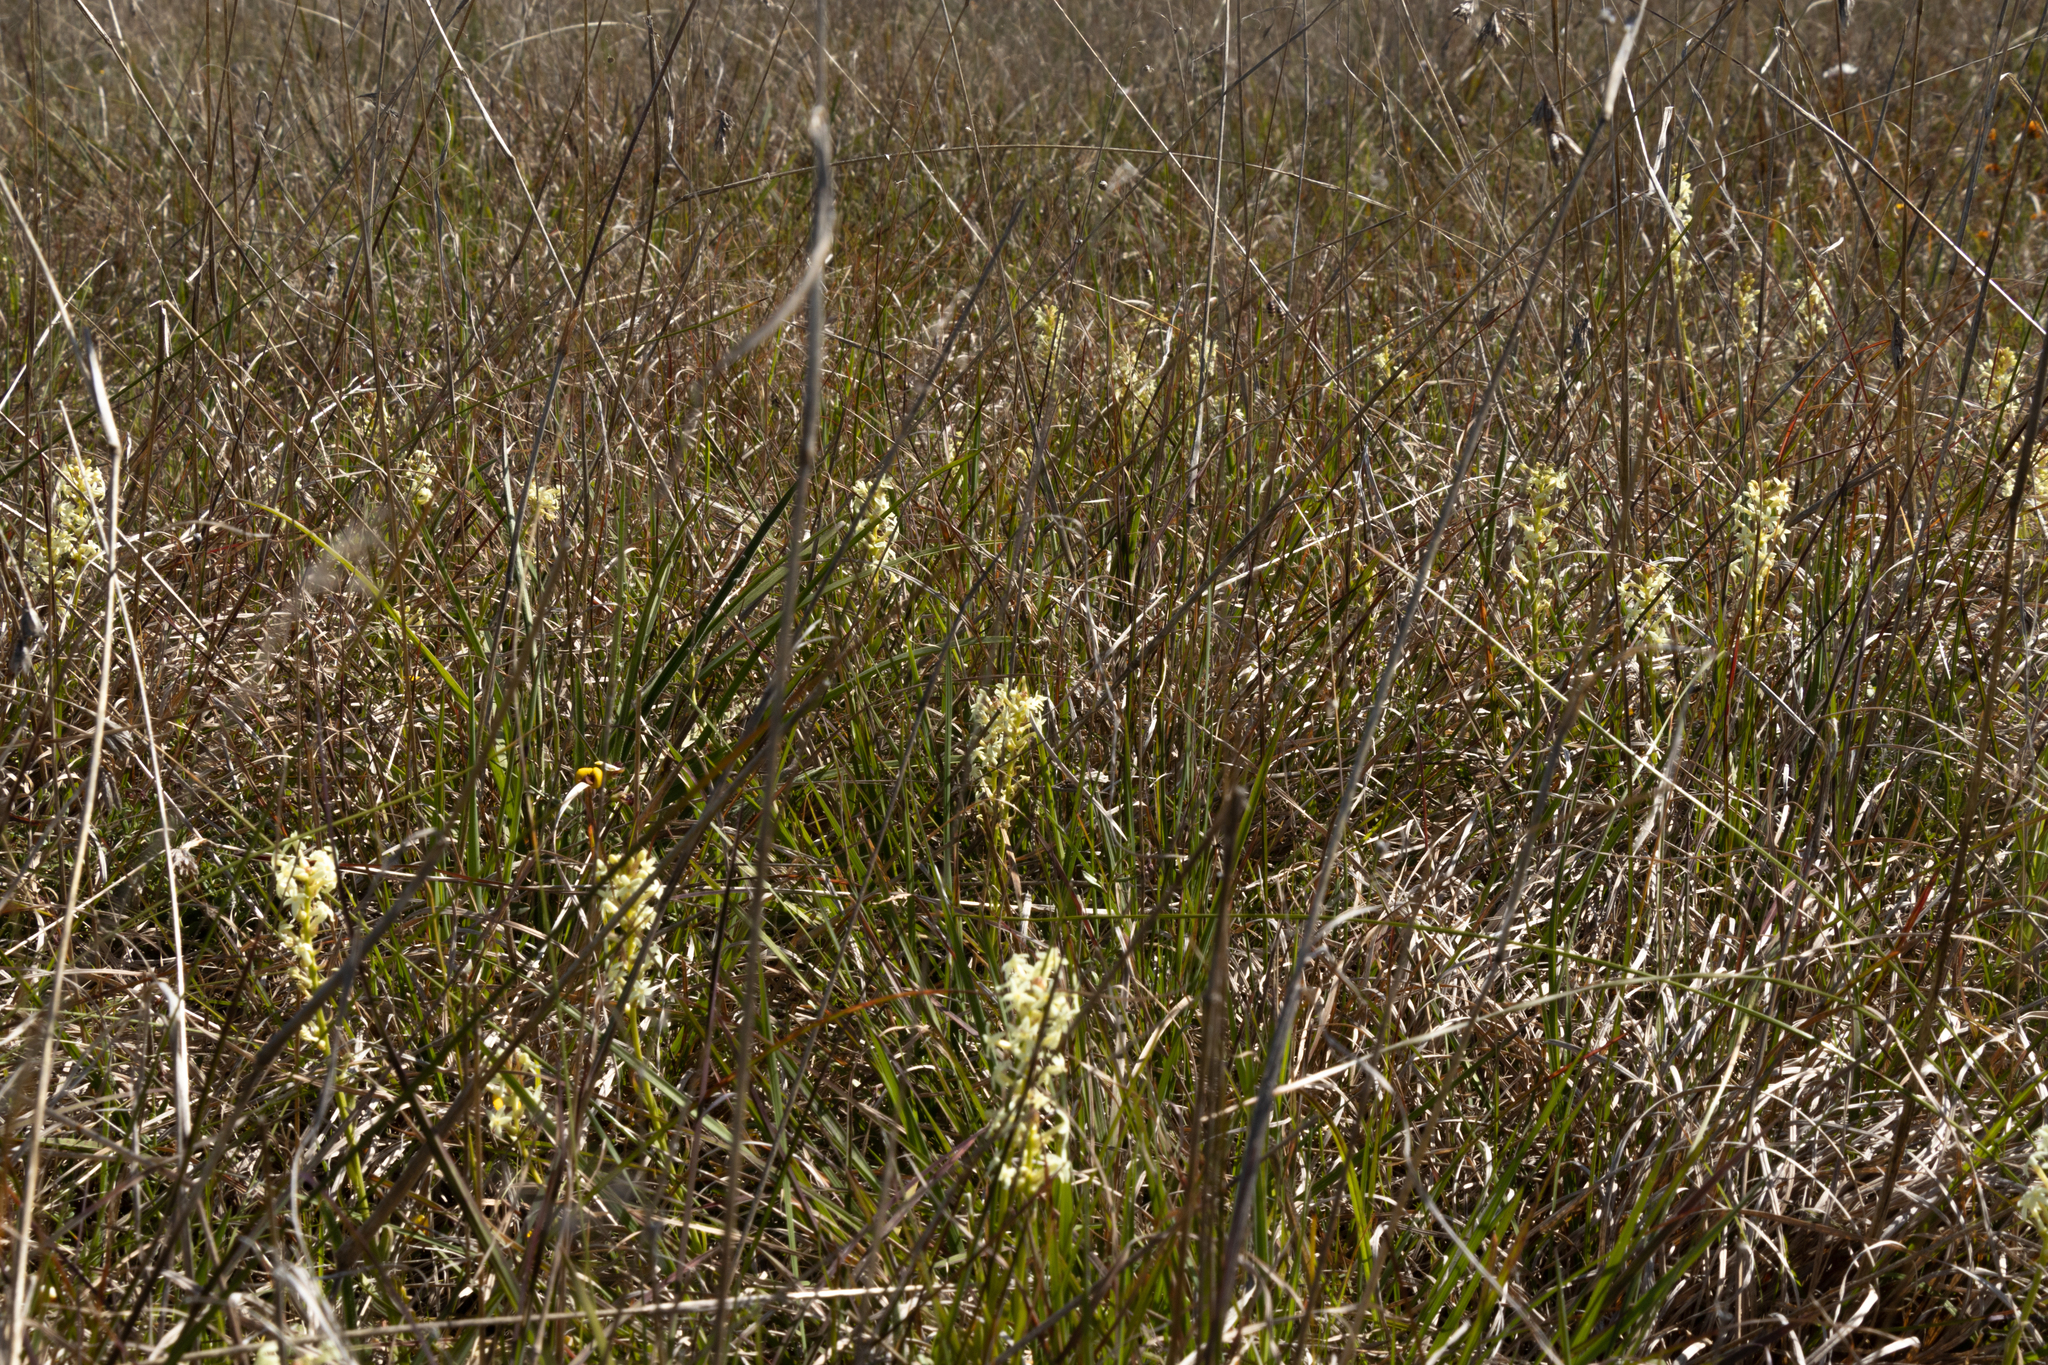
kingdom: Plantae
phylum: Tracheophyta
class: Magnoliopsida
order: Celastrales
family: Celastraceae
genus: Stackhousia
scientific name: Stackhousia subterranea
